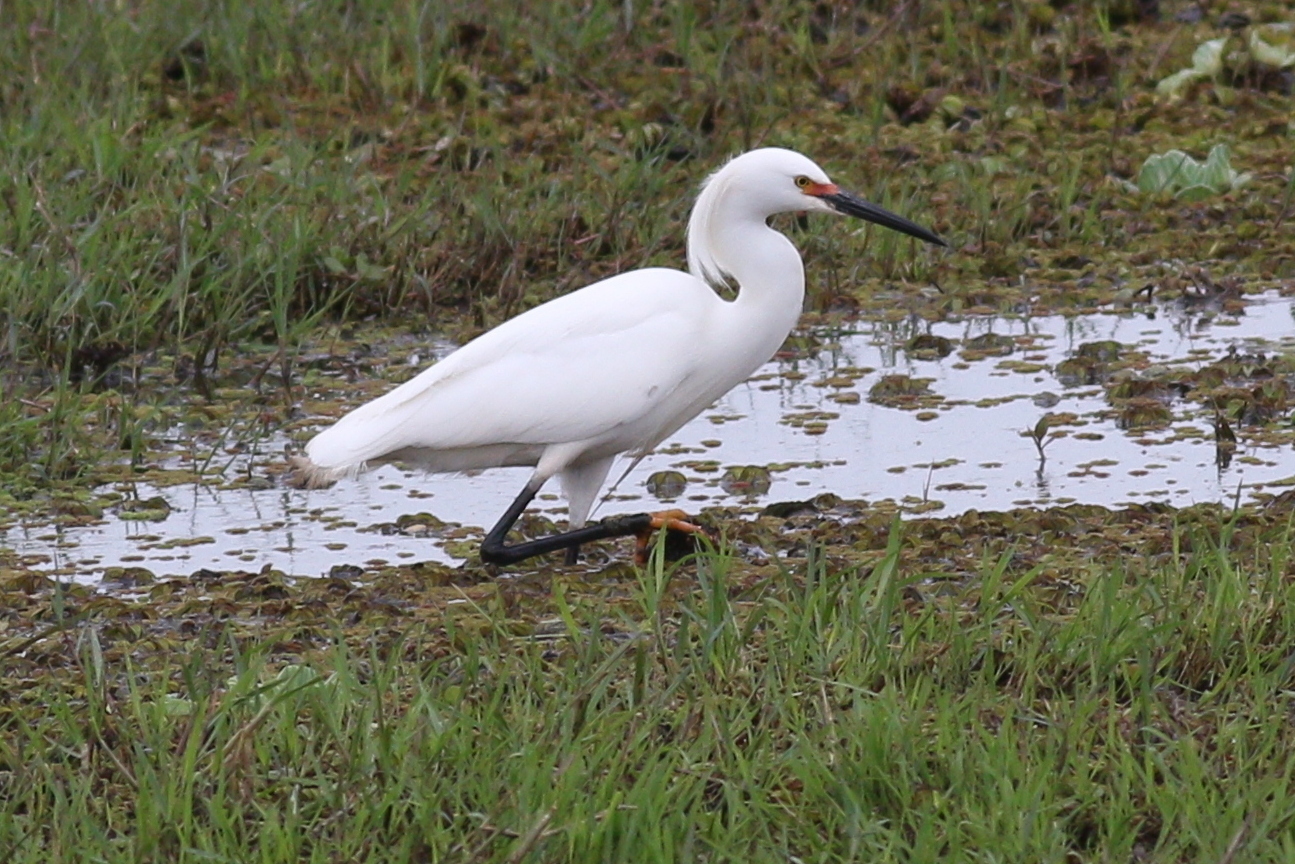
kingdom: Animalia
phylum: Chordata
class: Aves
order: Pelecaniformes
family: Ardeidae
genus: Egretta
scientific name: Egretta thula
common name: Snowy egret
